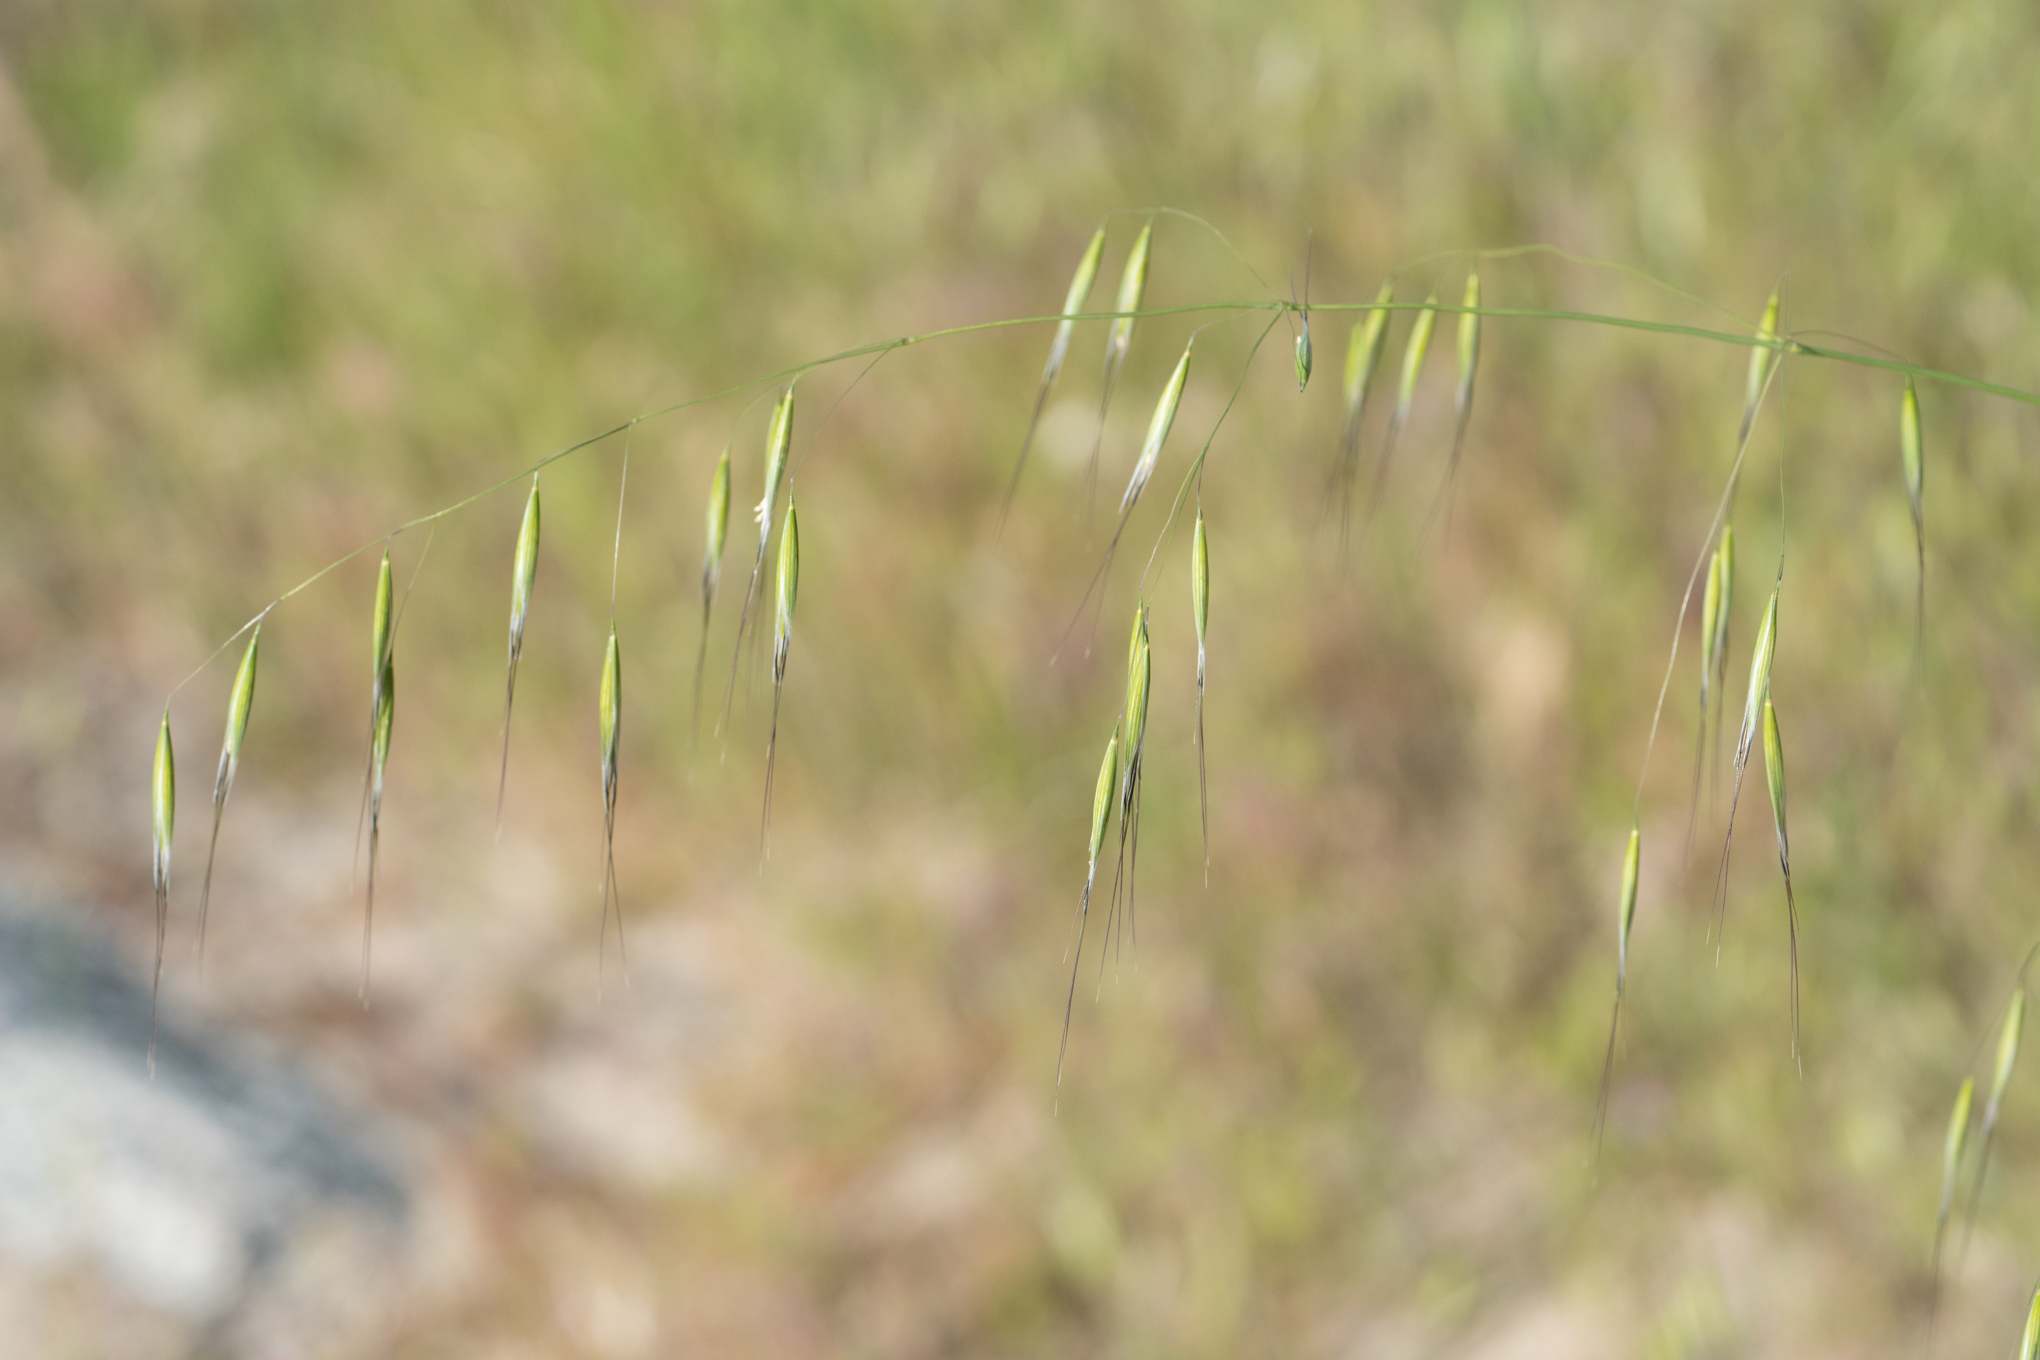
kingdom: Plantae
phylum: Tracheophyta
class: Liliopsida
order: Poales
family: Poaceae
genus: Avena
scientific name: Avena barbata
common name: Slender oat
